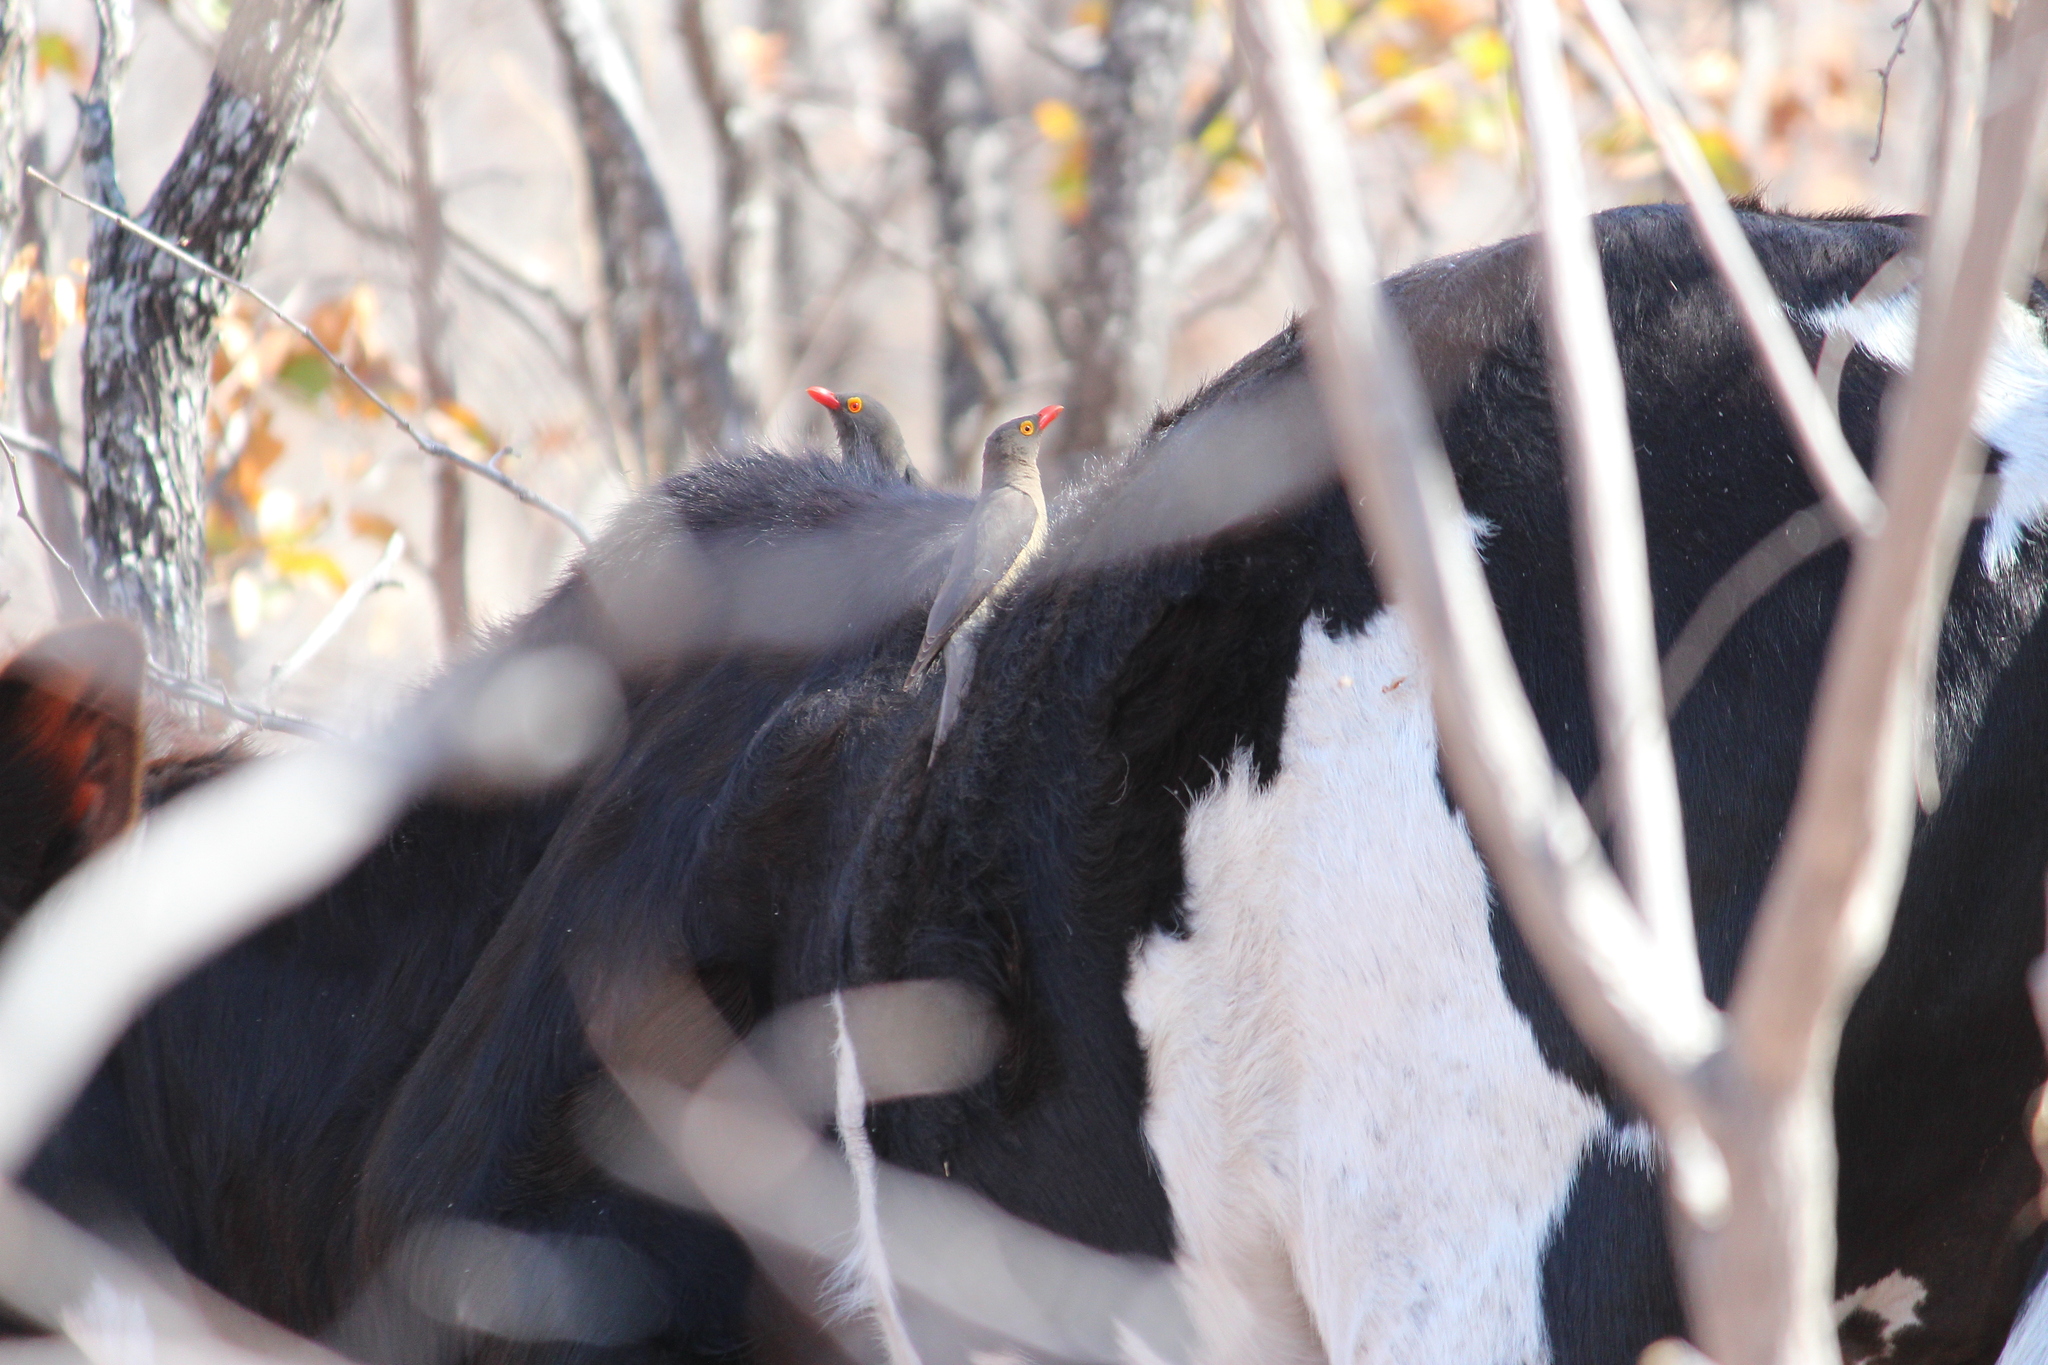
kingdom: Animalia
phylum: Chordata
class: Aves
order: Passeriformes
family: Buphagidae
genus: Buphagus
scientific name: Buphagus erythrorhynchus
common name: Red-billed oxpecker
